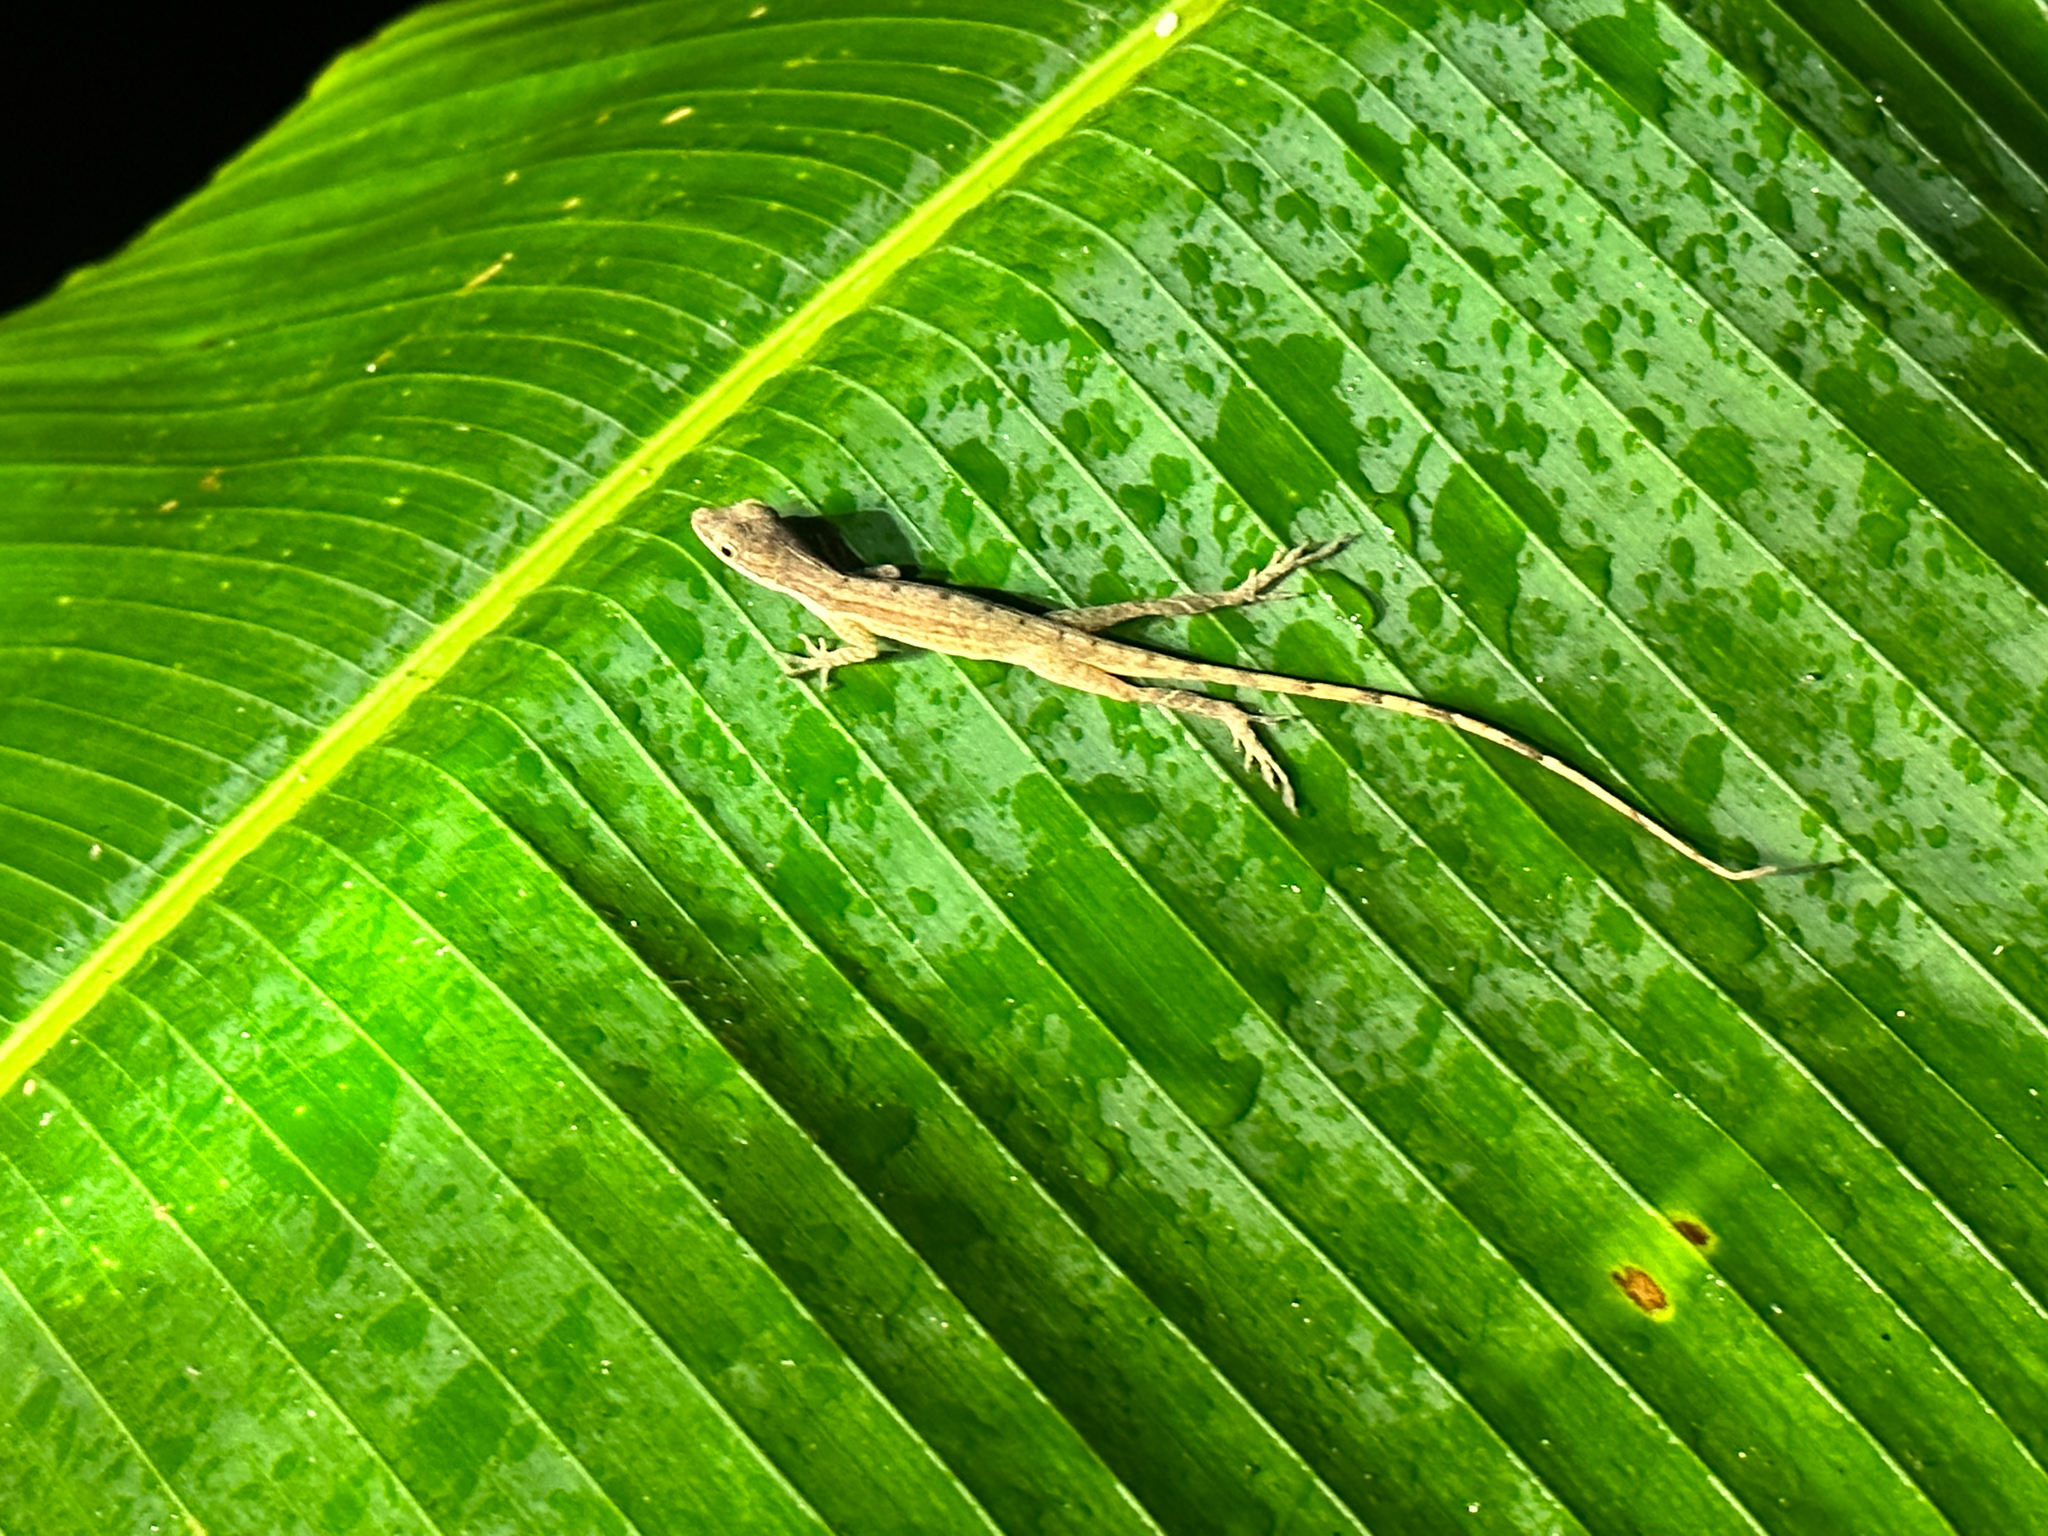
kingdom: Animalia
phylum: Chordata
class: Squamata
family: Dactyloidae
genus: Anolis
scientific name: Anolis limifrons
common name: Border anole
